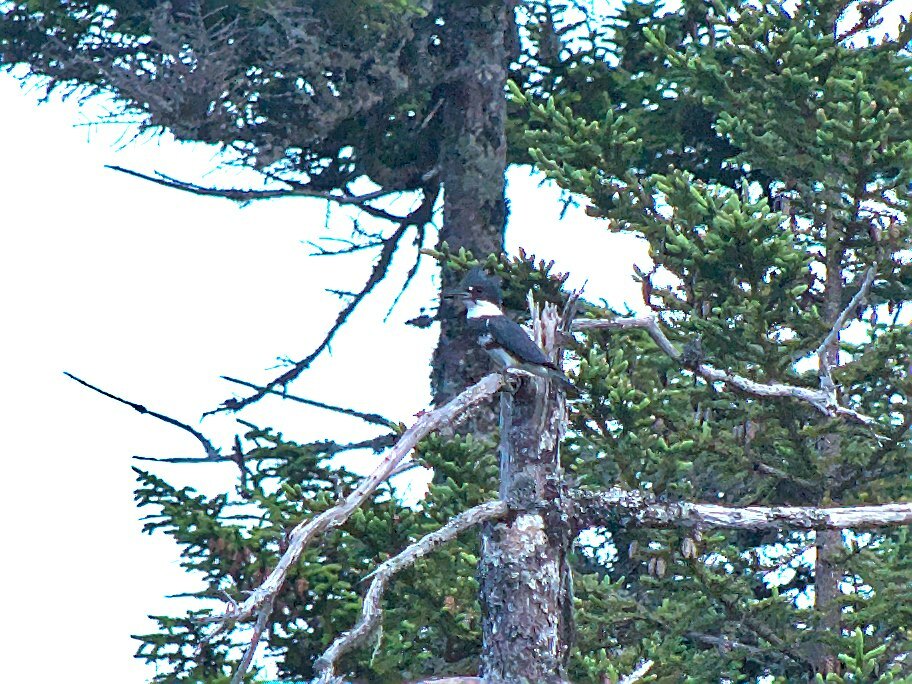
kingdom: Animalia
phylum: Chordata
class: Aves
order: Coraciiformes
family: Alcedinidae
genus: Megaceryle
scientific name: Megaceryle alcyon
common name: Belted kingfisher
